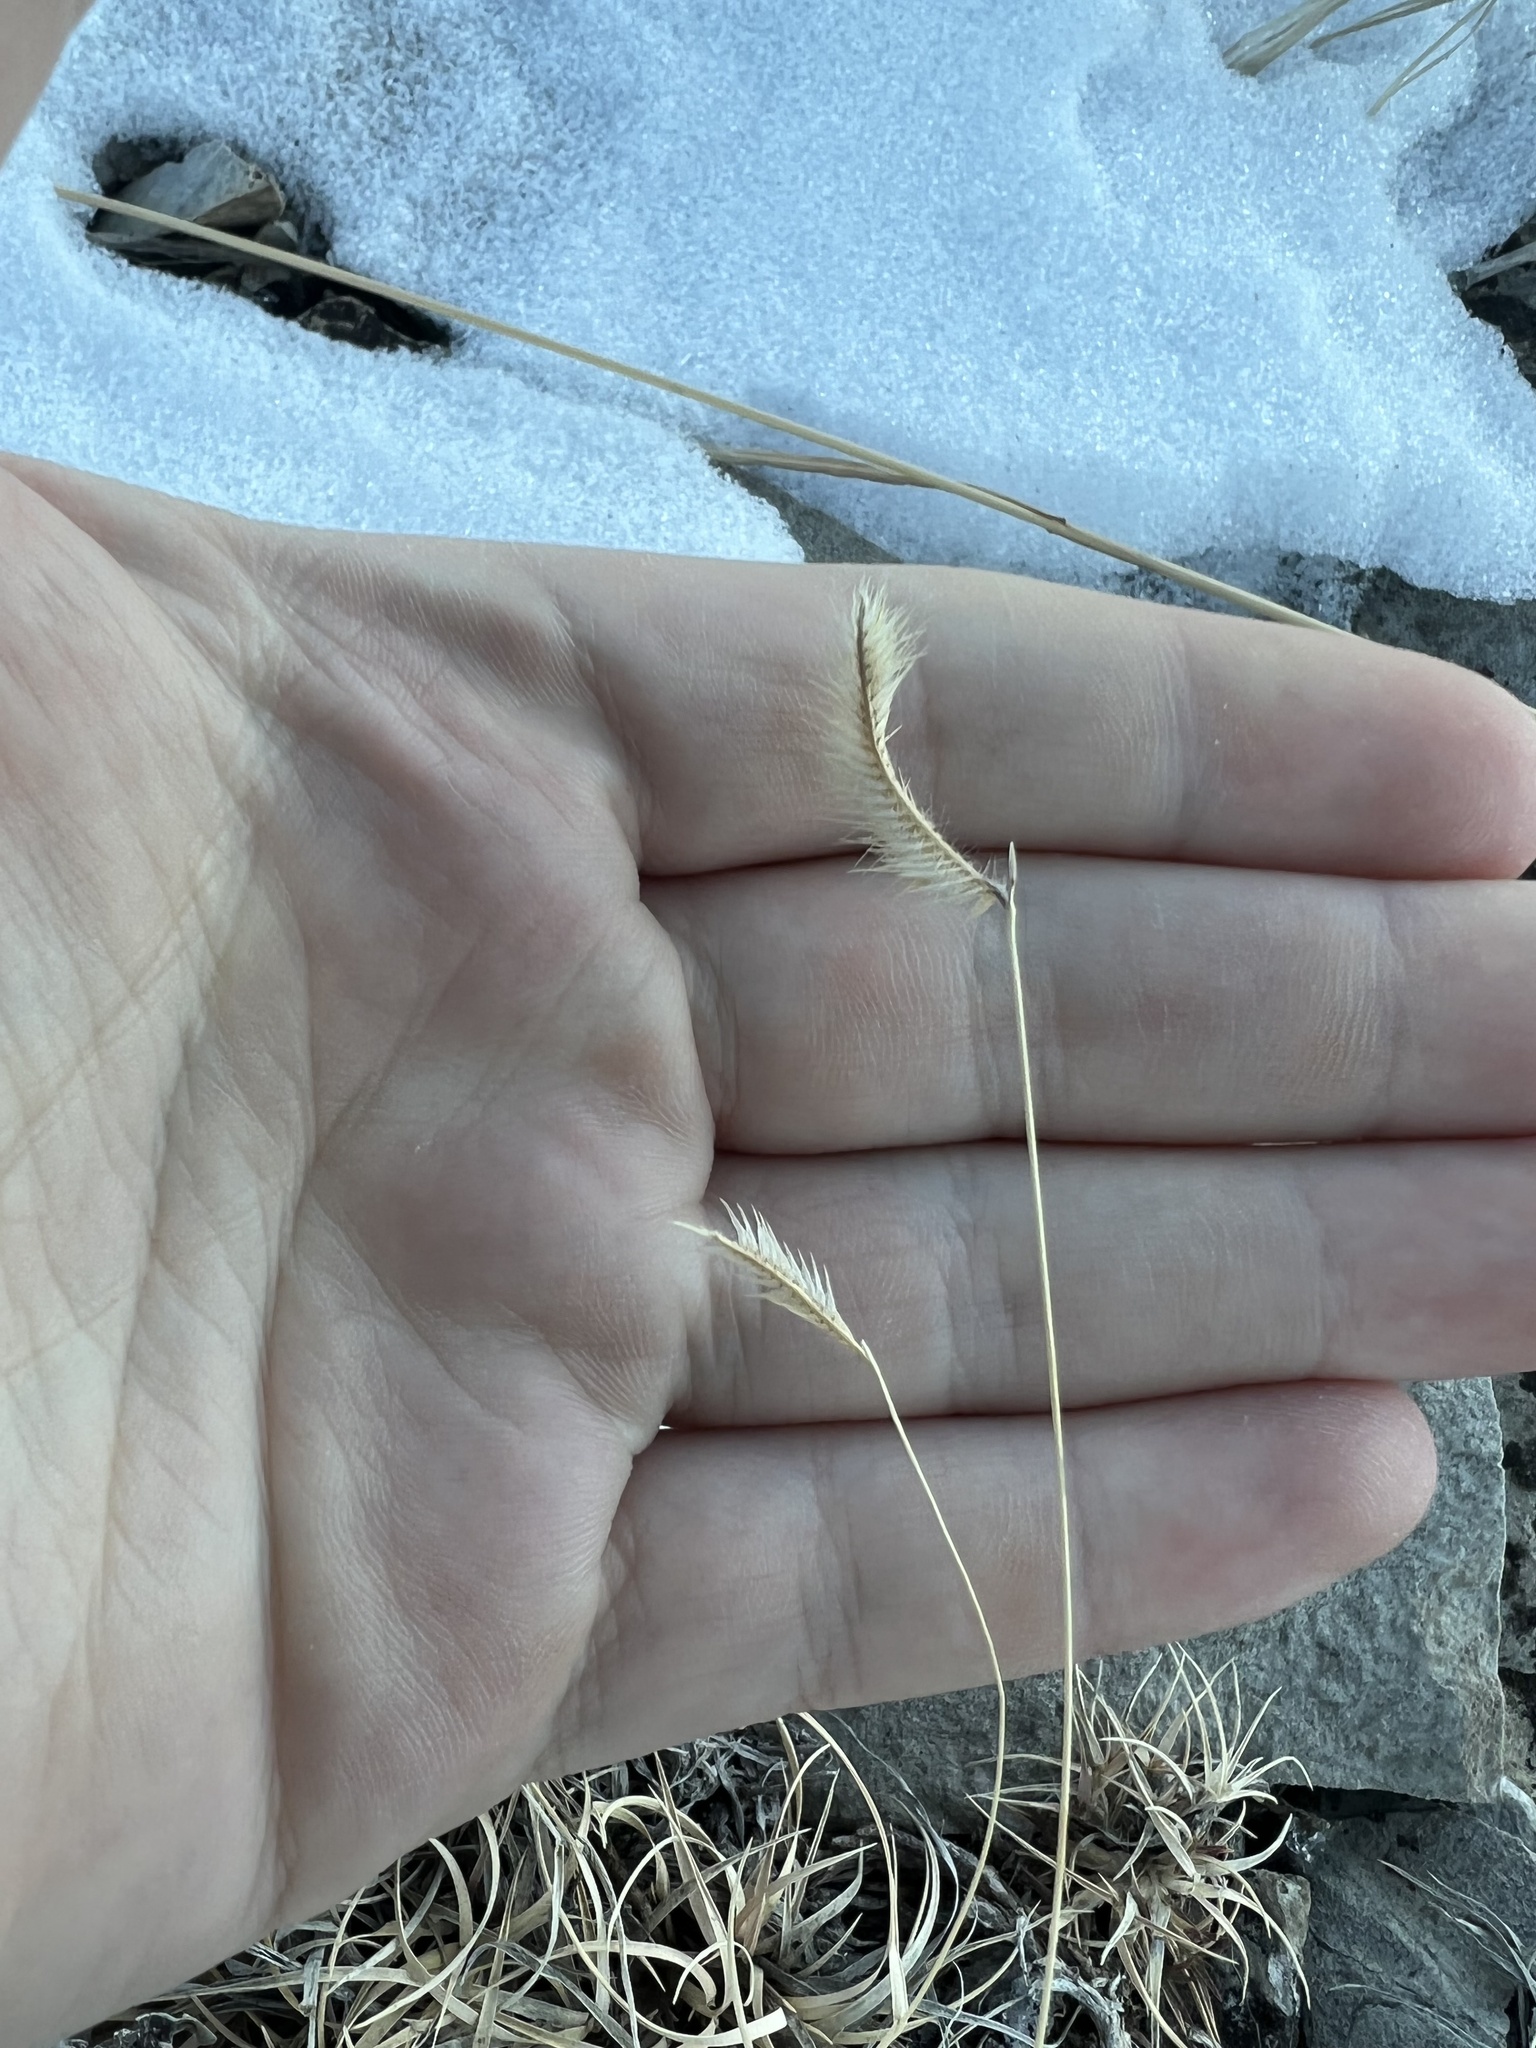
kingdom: Plantae
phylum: Tracheophyta
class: Liliopsida
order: Poales
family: Poaceae
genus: Bouteloua
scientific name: Bouteloua gracilis
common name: Blue grama
